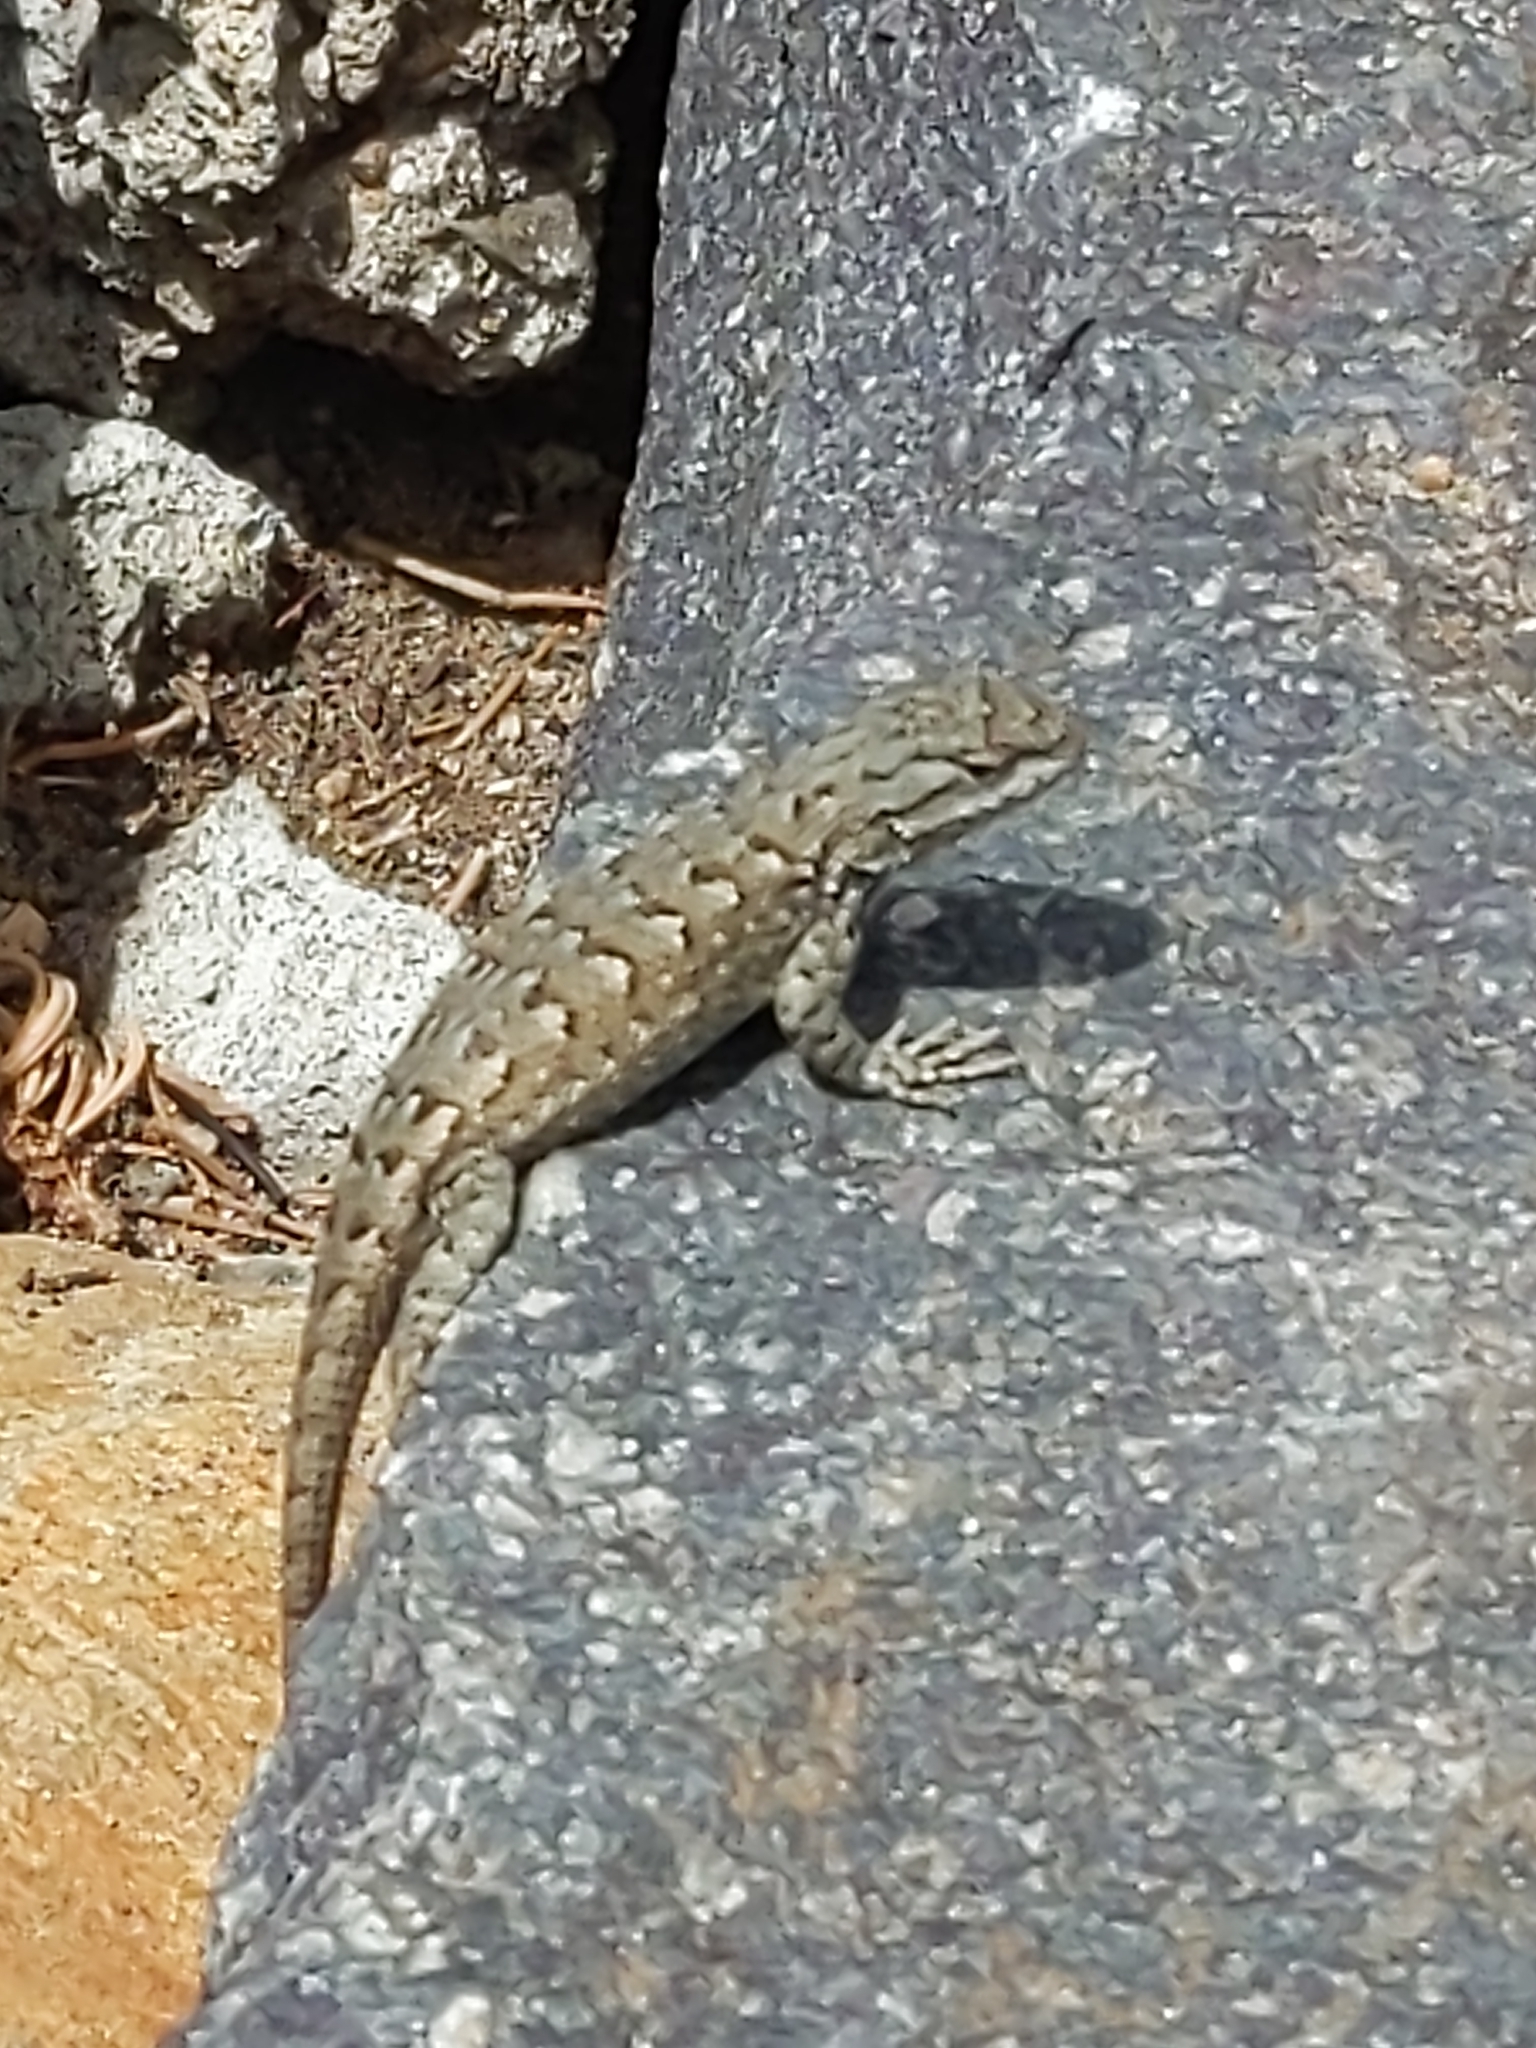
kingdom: Animalia
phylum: Chordata
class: Squamata
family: Phrynosomatidae
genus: Sceloporus
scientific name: Sceloporus tristichus
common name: Plateau fence lizard
